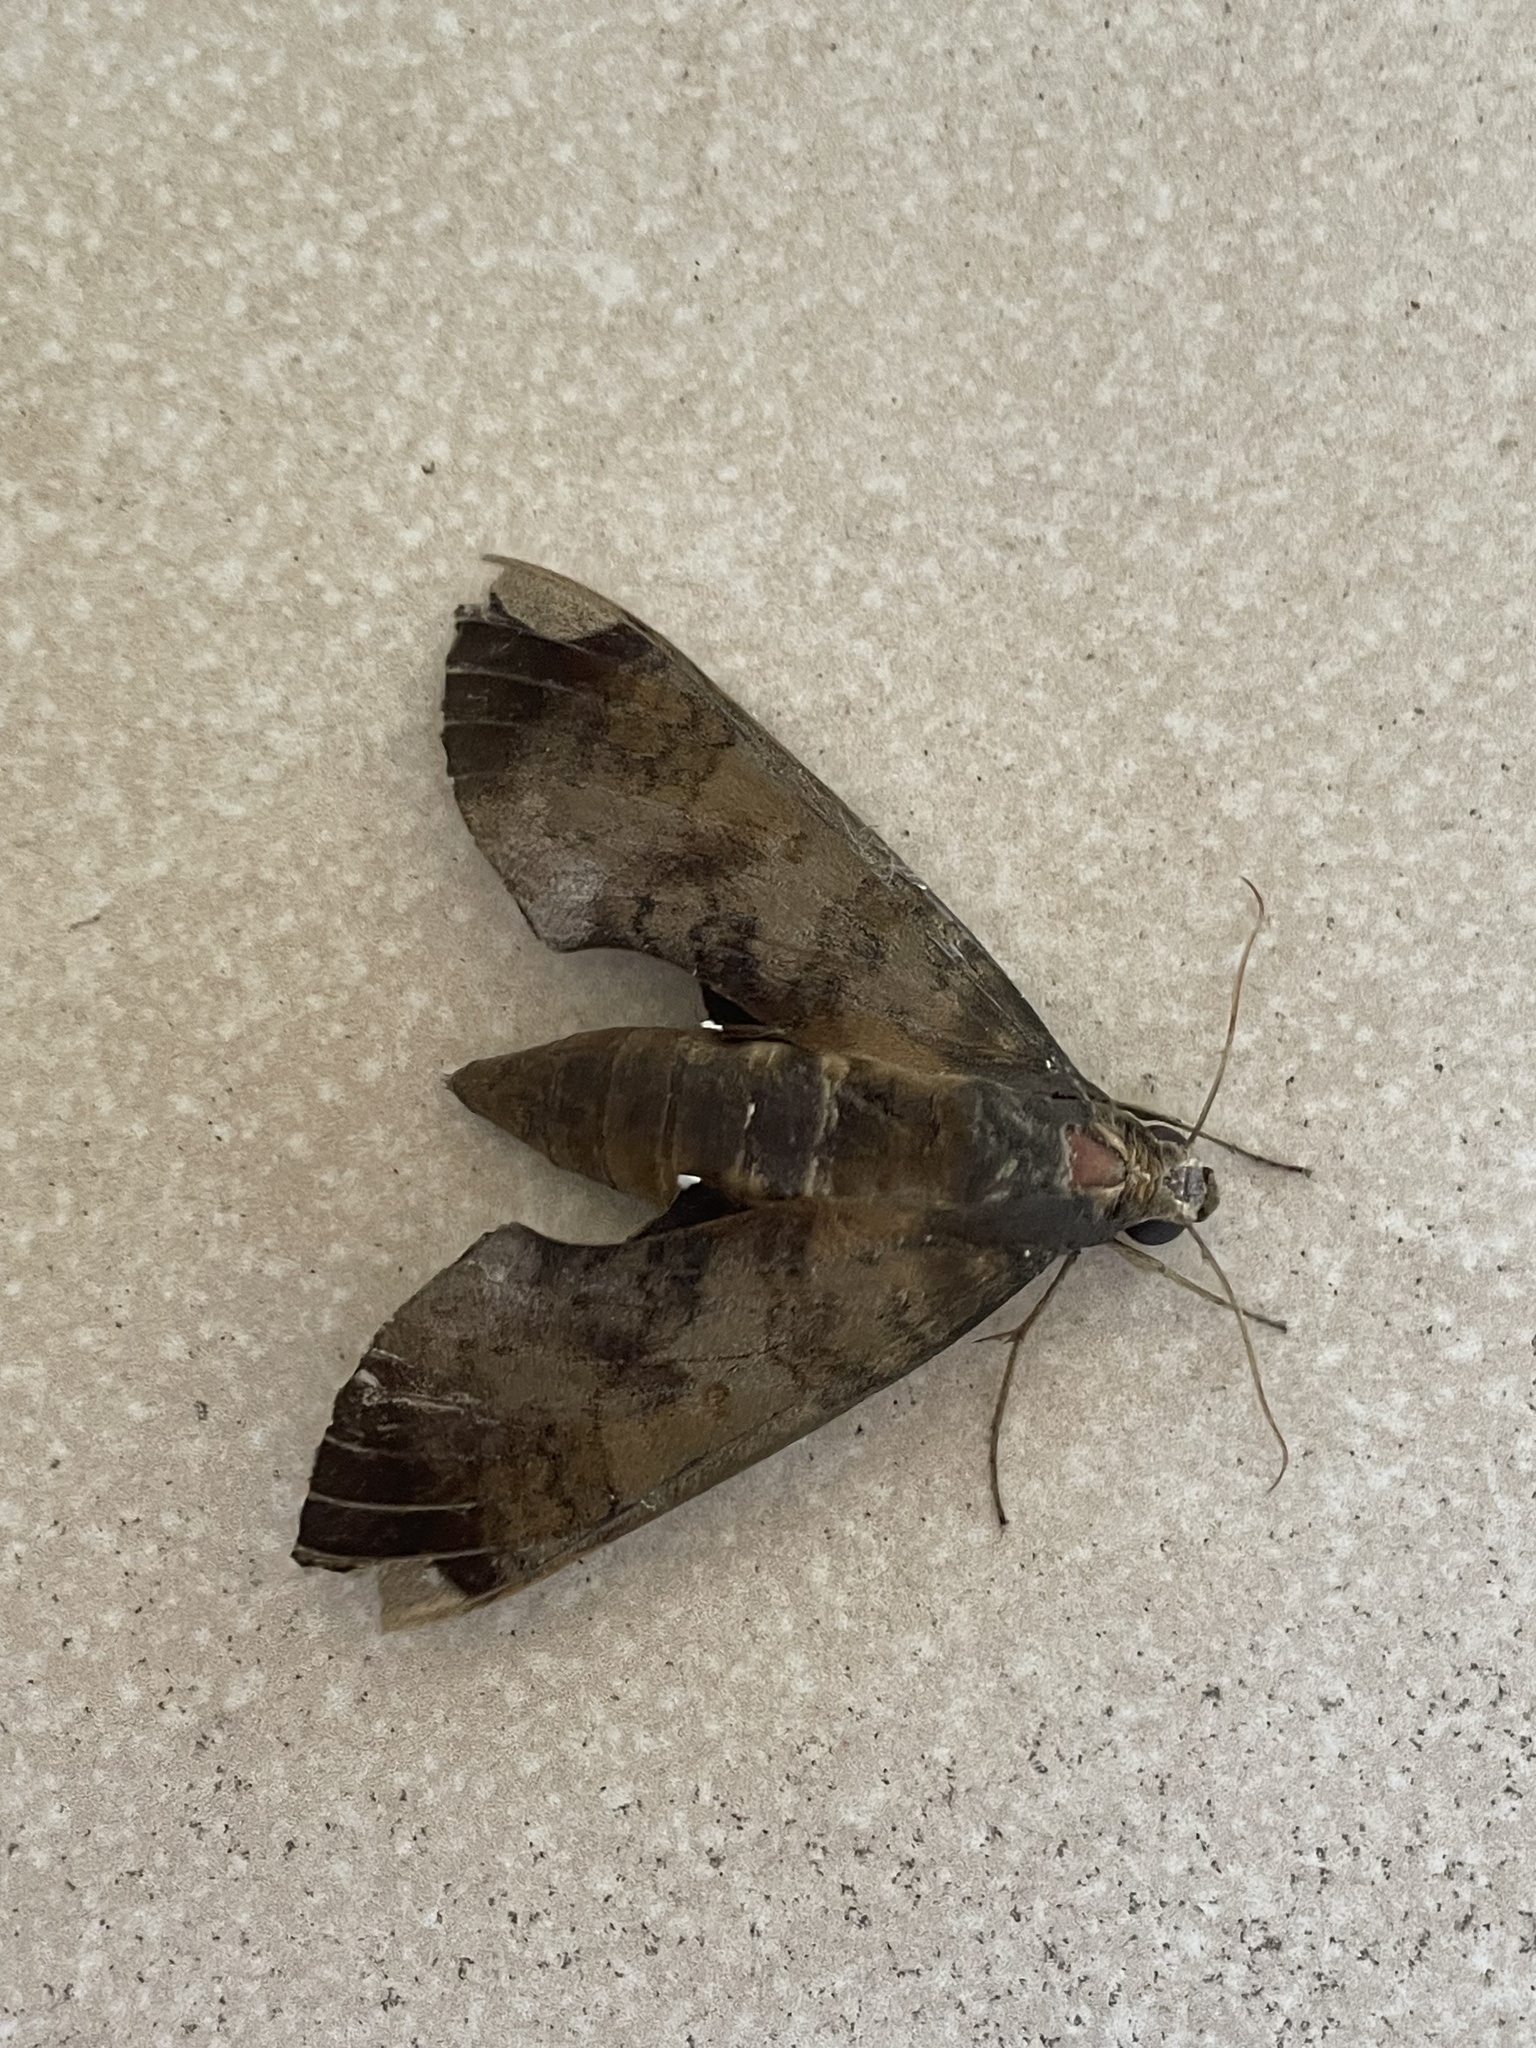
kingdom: Animalia
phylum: Arthropoda
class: Insecta
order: Lepidoptera
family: Sphingidae
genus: Pachylia
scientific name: Pachylia ficus
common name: Fig sphinx
